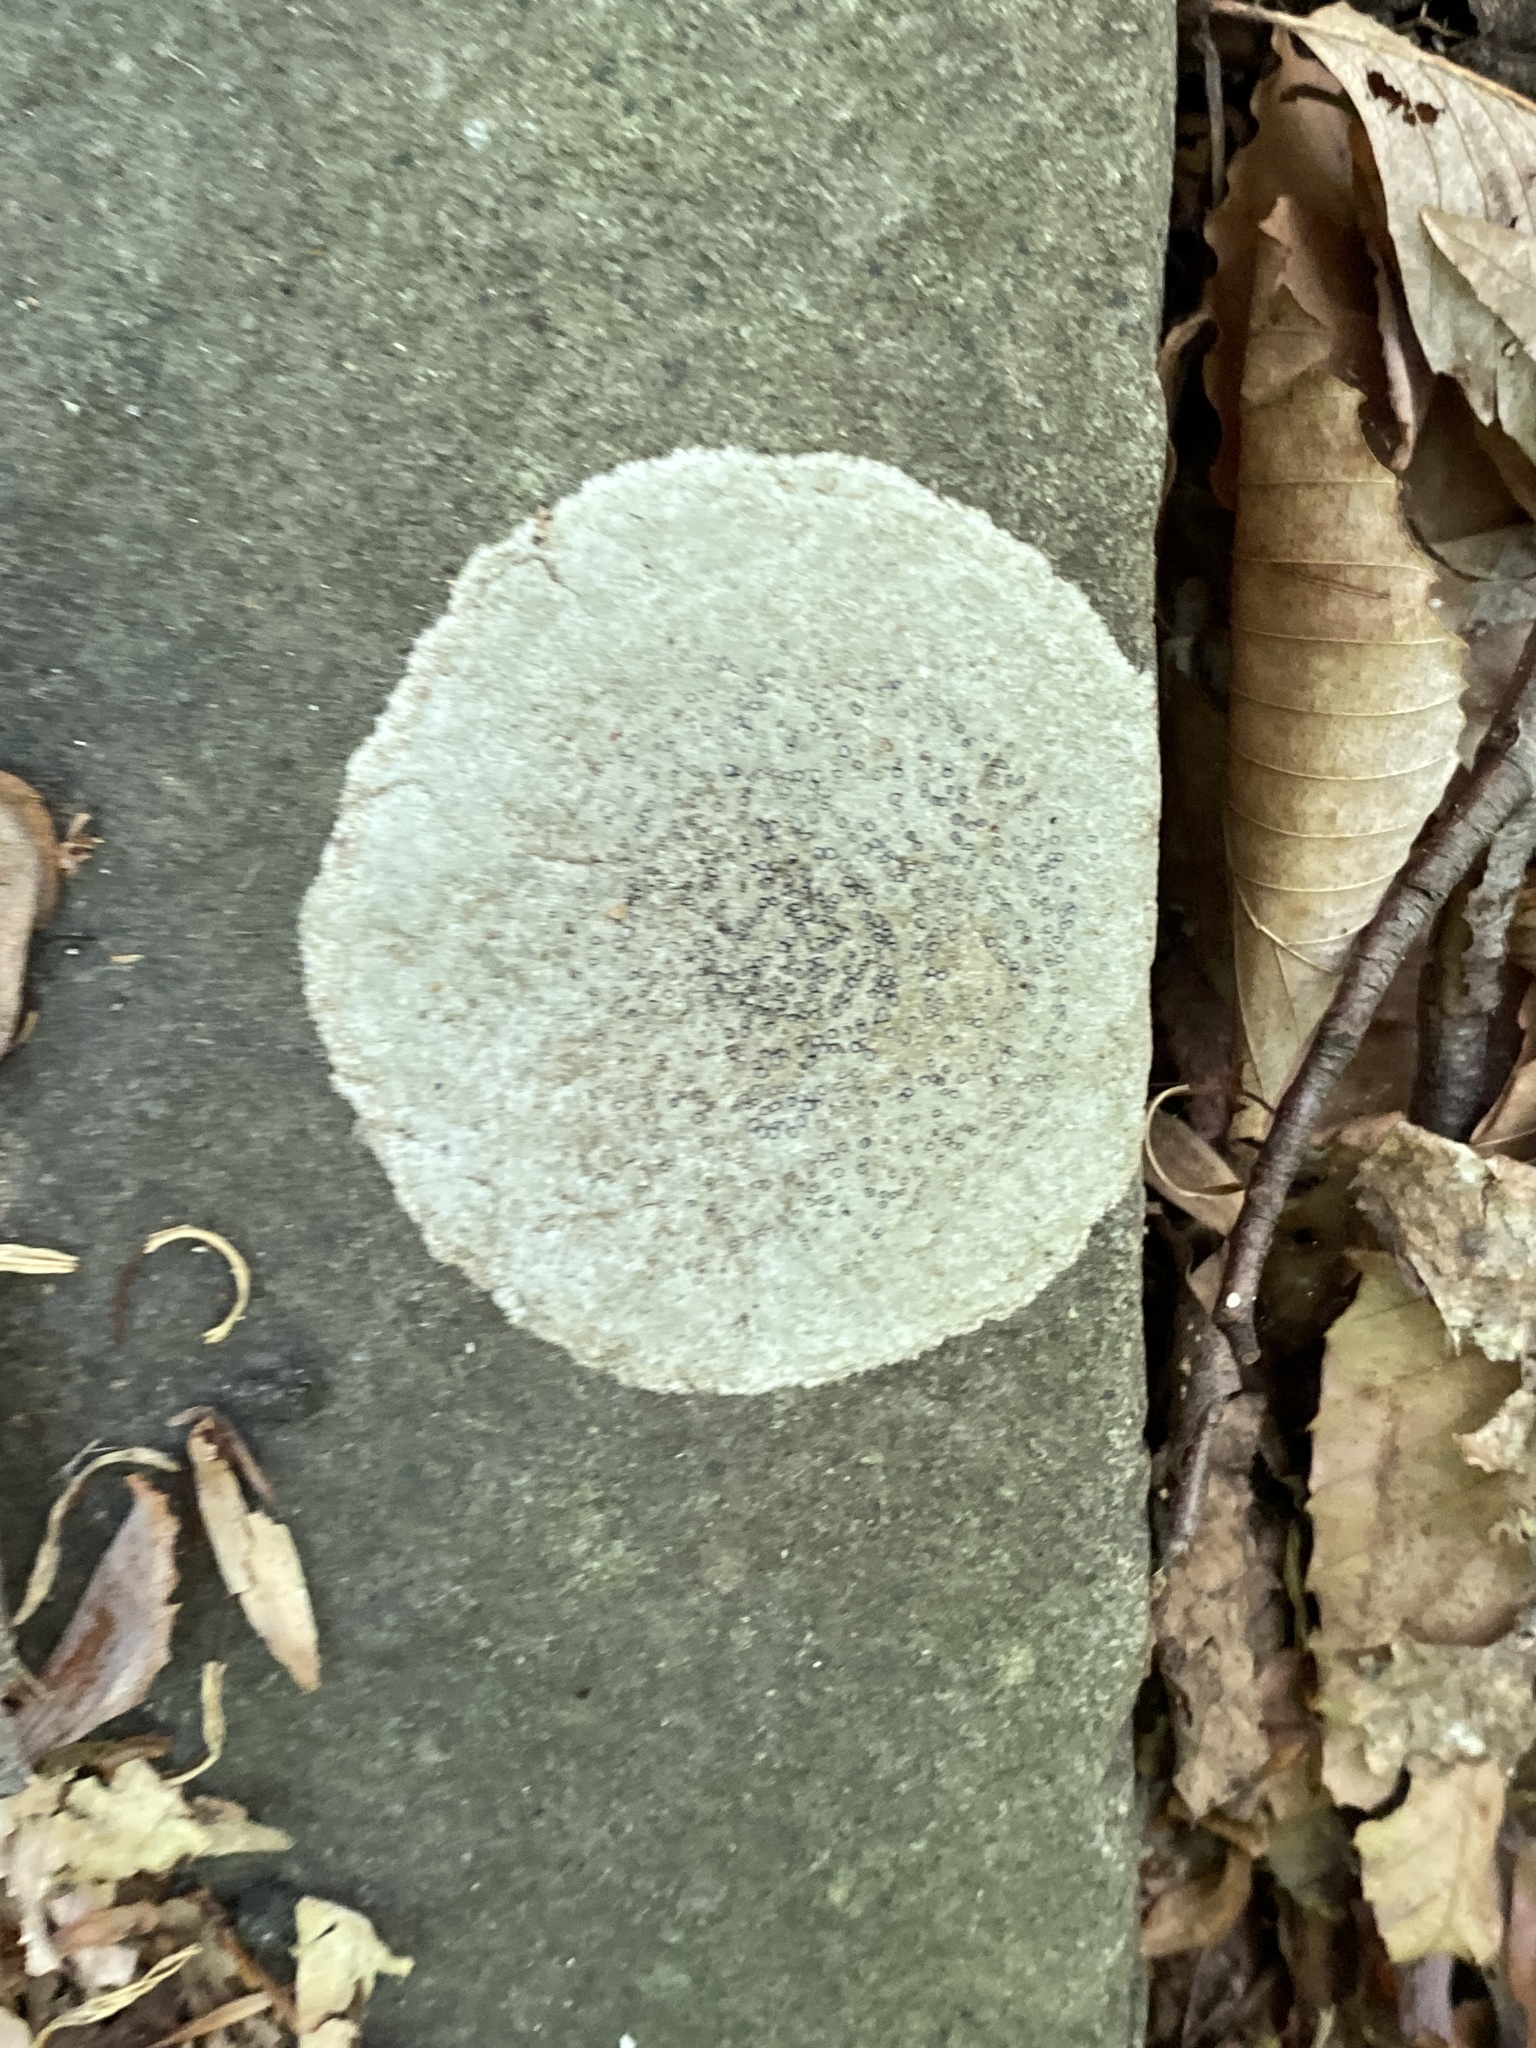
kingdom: Fungi
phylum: Ascomycota
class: Lecanoromycetes
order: Lecideales
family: Lecideaceae
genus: Porpidia
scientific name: Porpidia albocaerulescens
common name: Smokey-eyed boulder lichen
